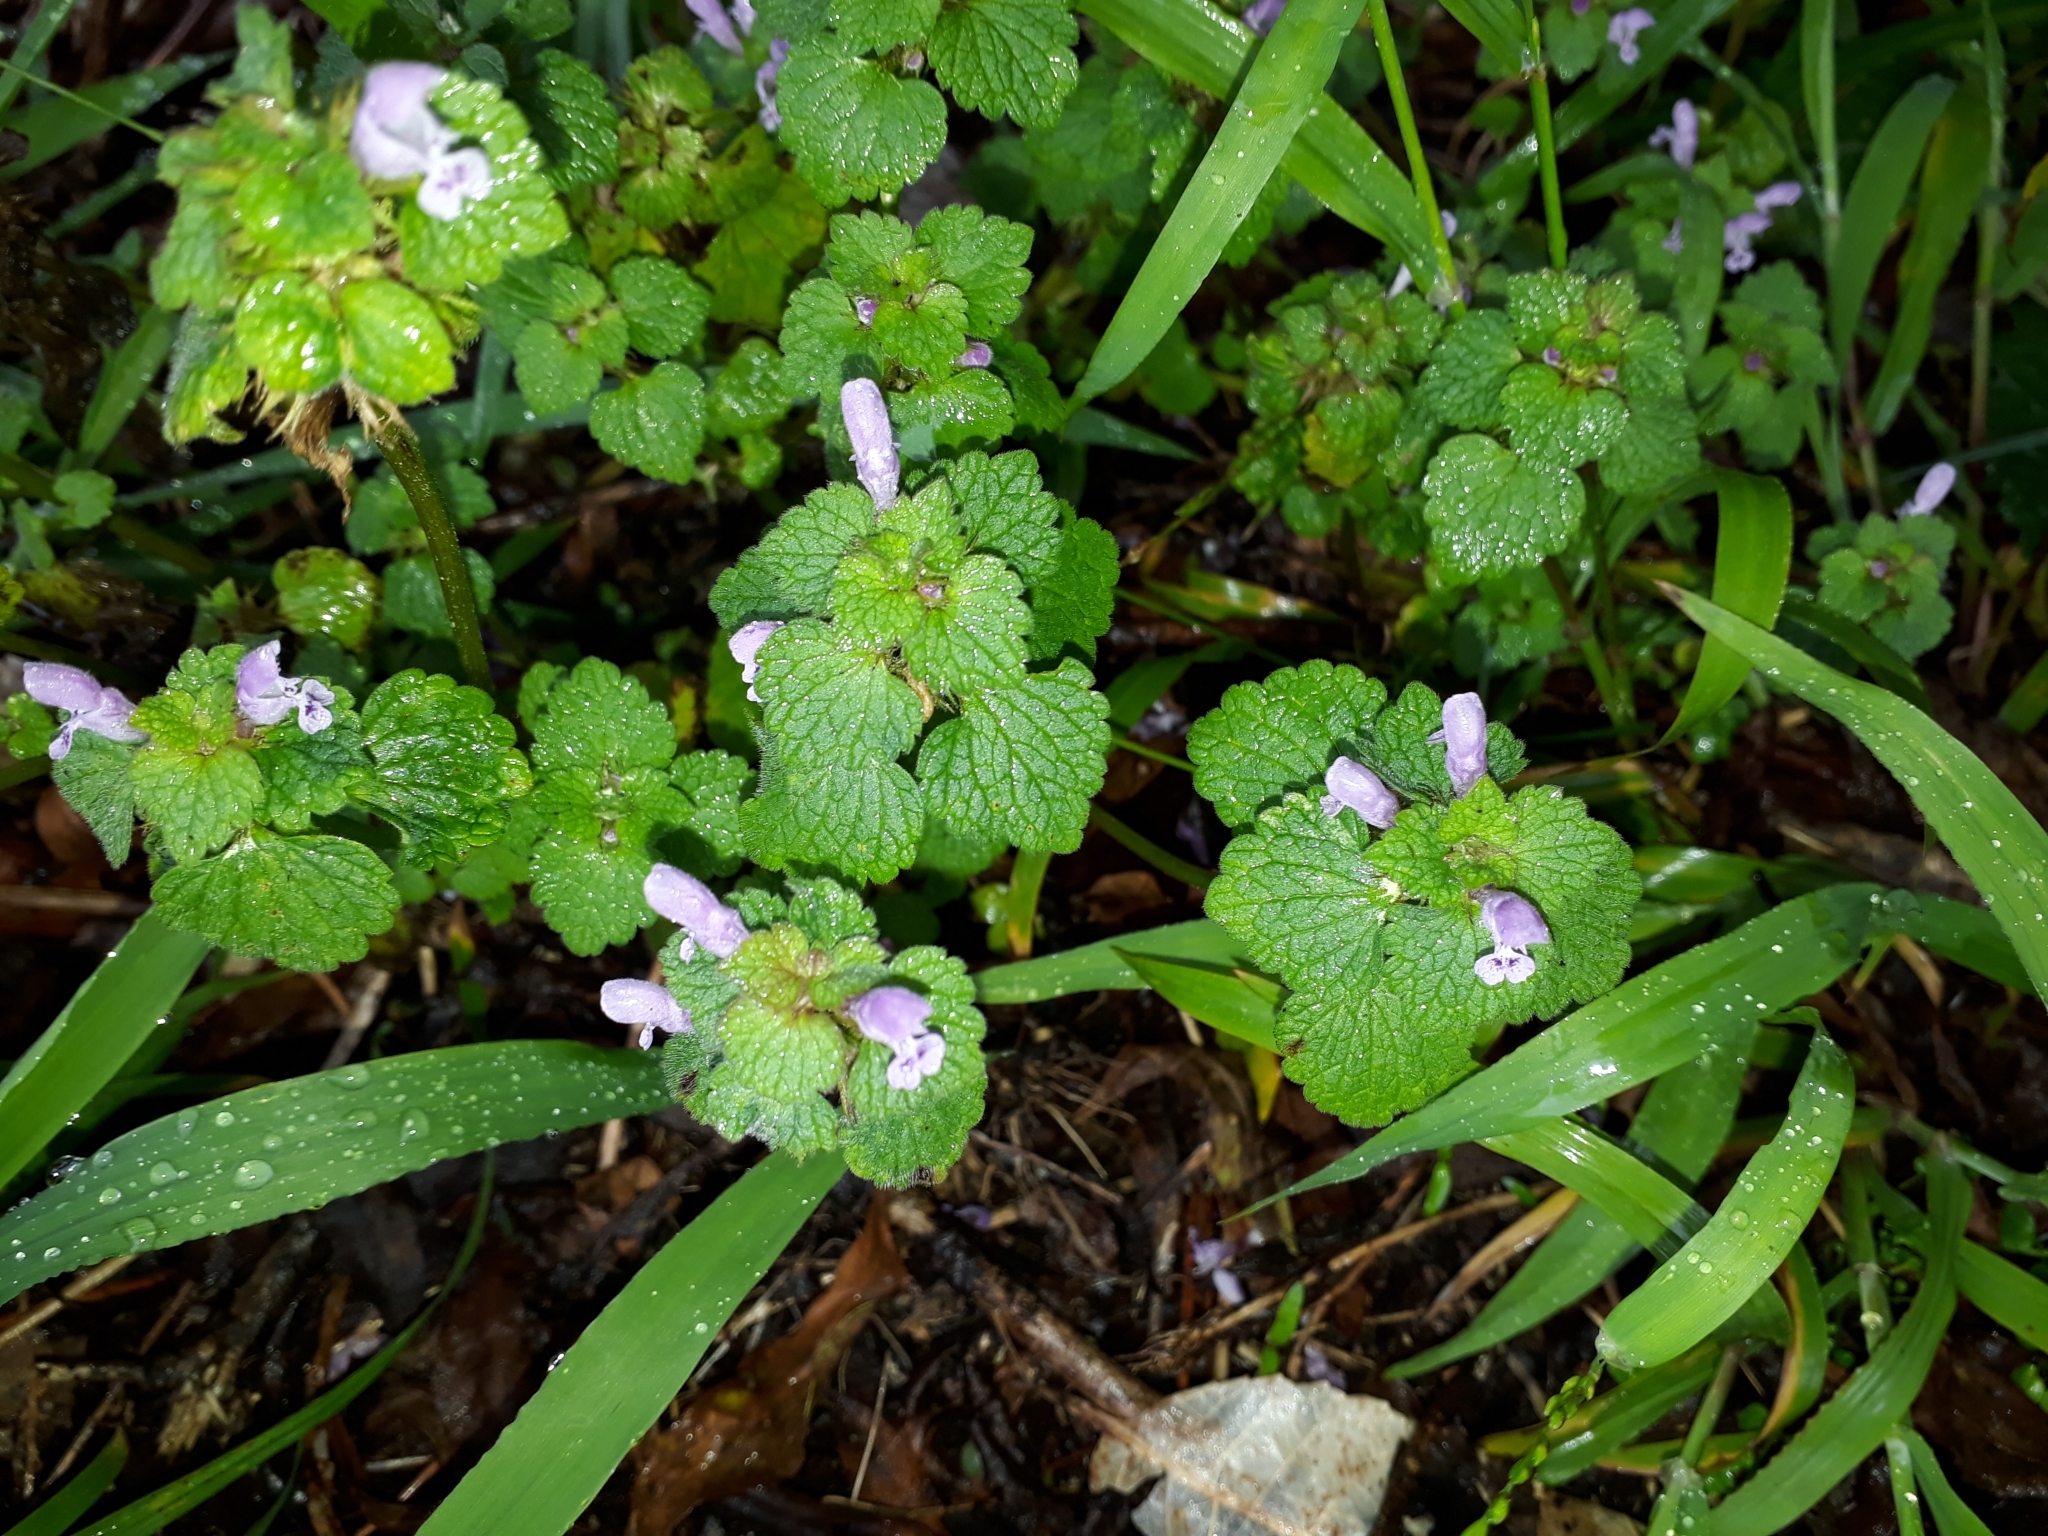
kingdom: Plantae
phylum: Tracheophyta
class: Magnoliopsida
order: Lamiales
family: Lamiaceae
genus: Lamium
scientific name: Lamium purpureum
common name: Red dead-nettle
